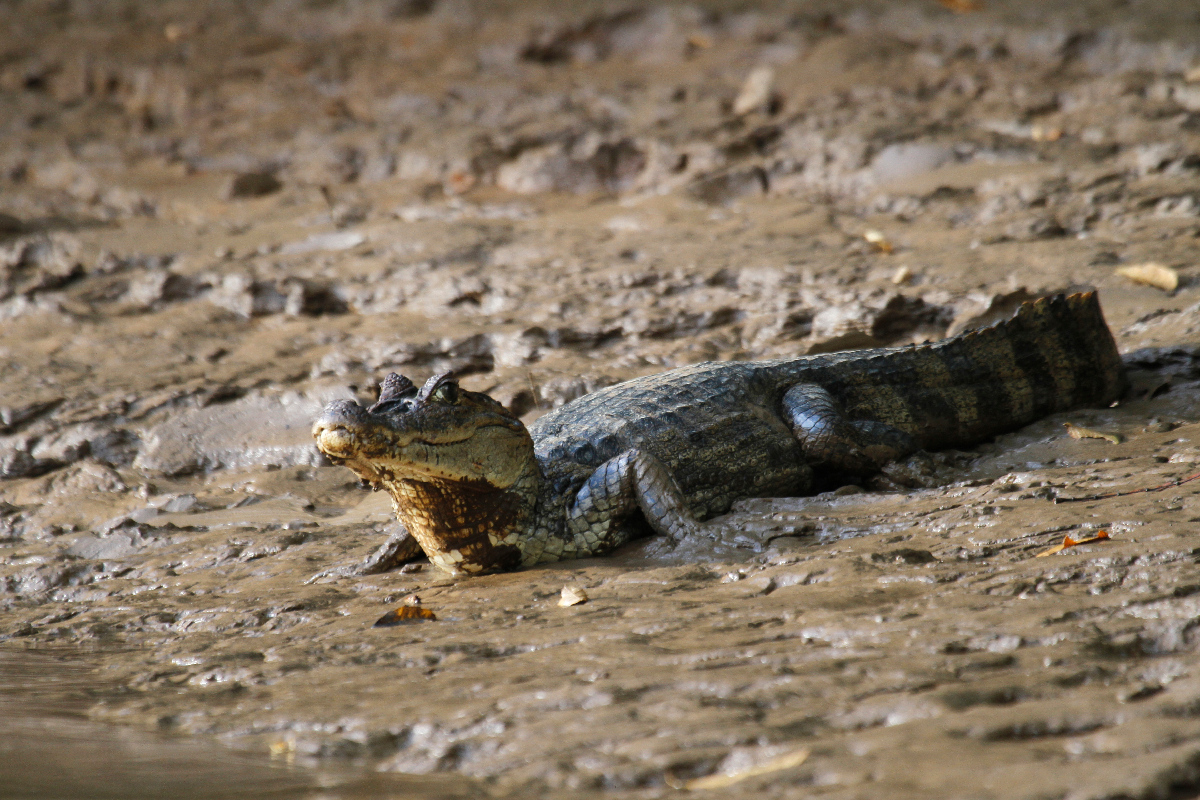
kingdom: Animalia
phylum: Chordata
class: Crocodylia
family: Alligatoridae
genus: Caiman
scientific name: Caiman crocodilus
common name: Common caiman
